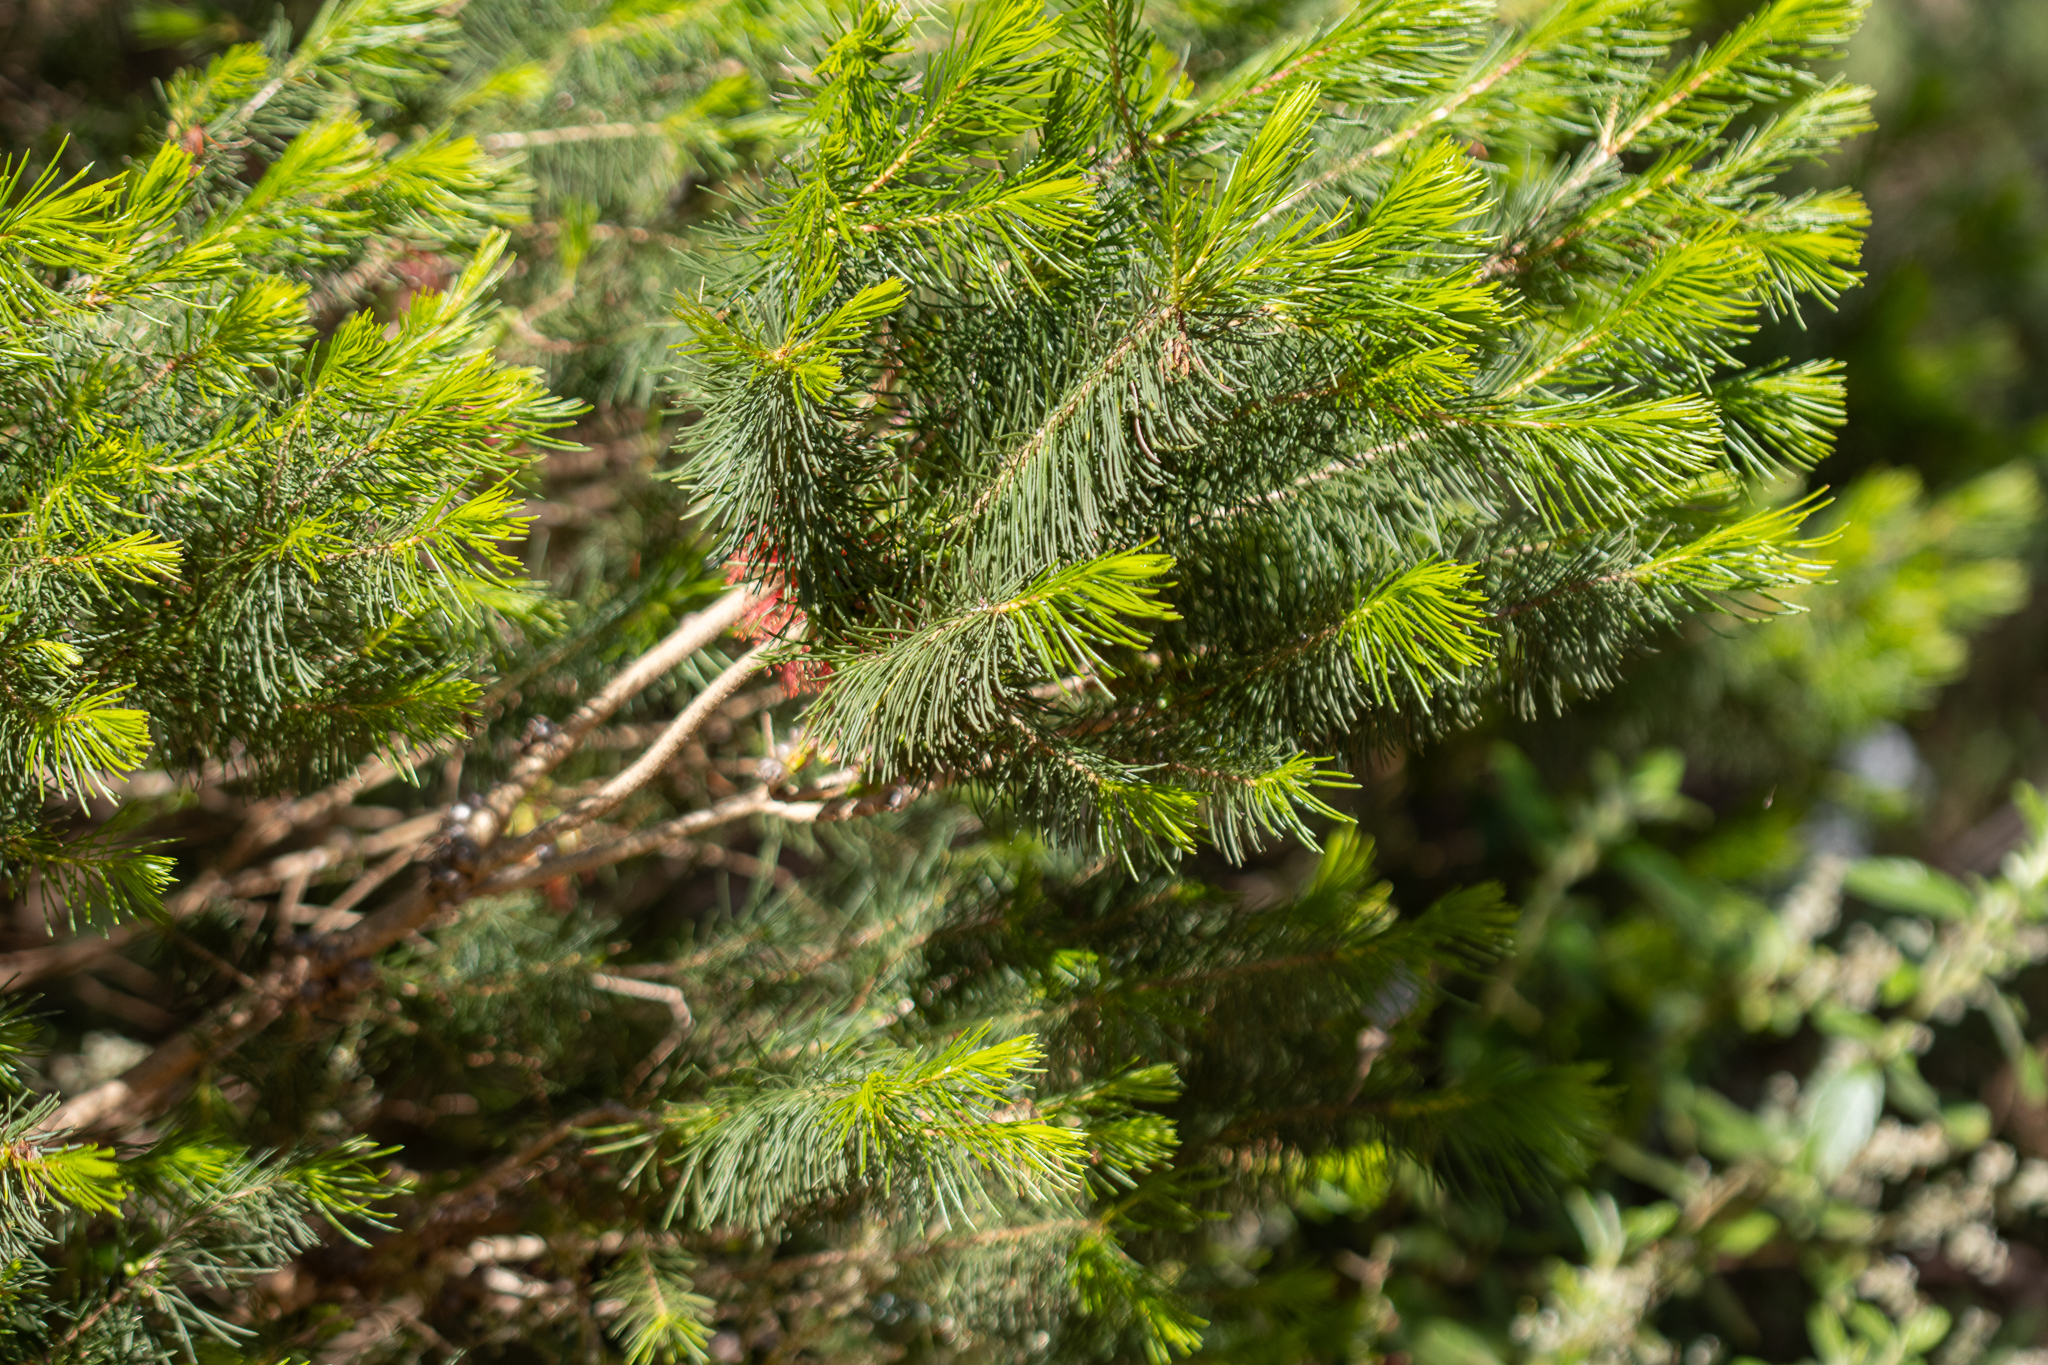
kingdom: Plantae
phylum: Tracheophyta
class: Magnoliopsida
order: Myrtales
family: Myrtaceae
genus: Melaleuca
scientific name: Melaleuca quadrifida
